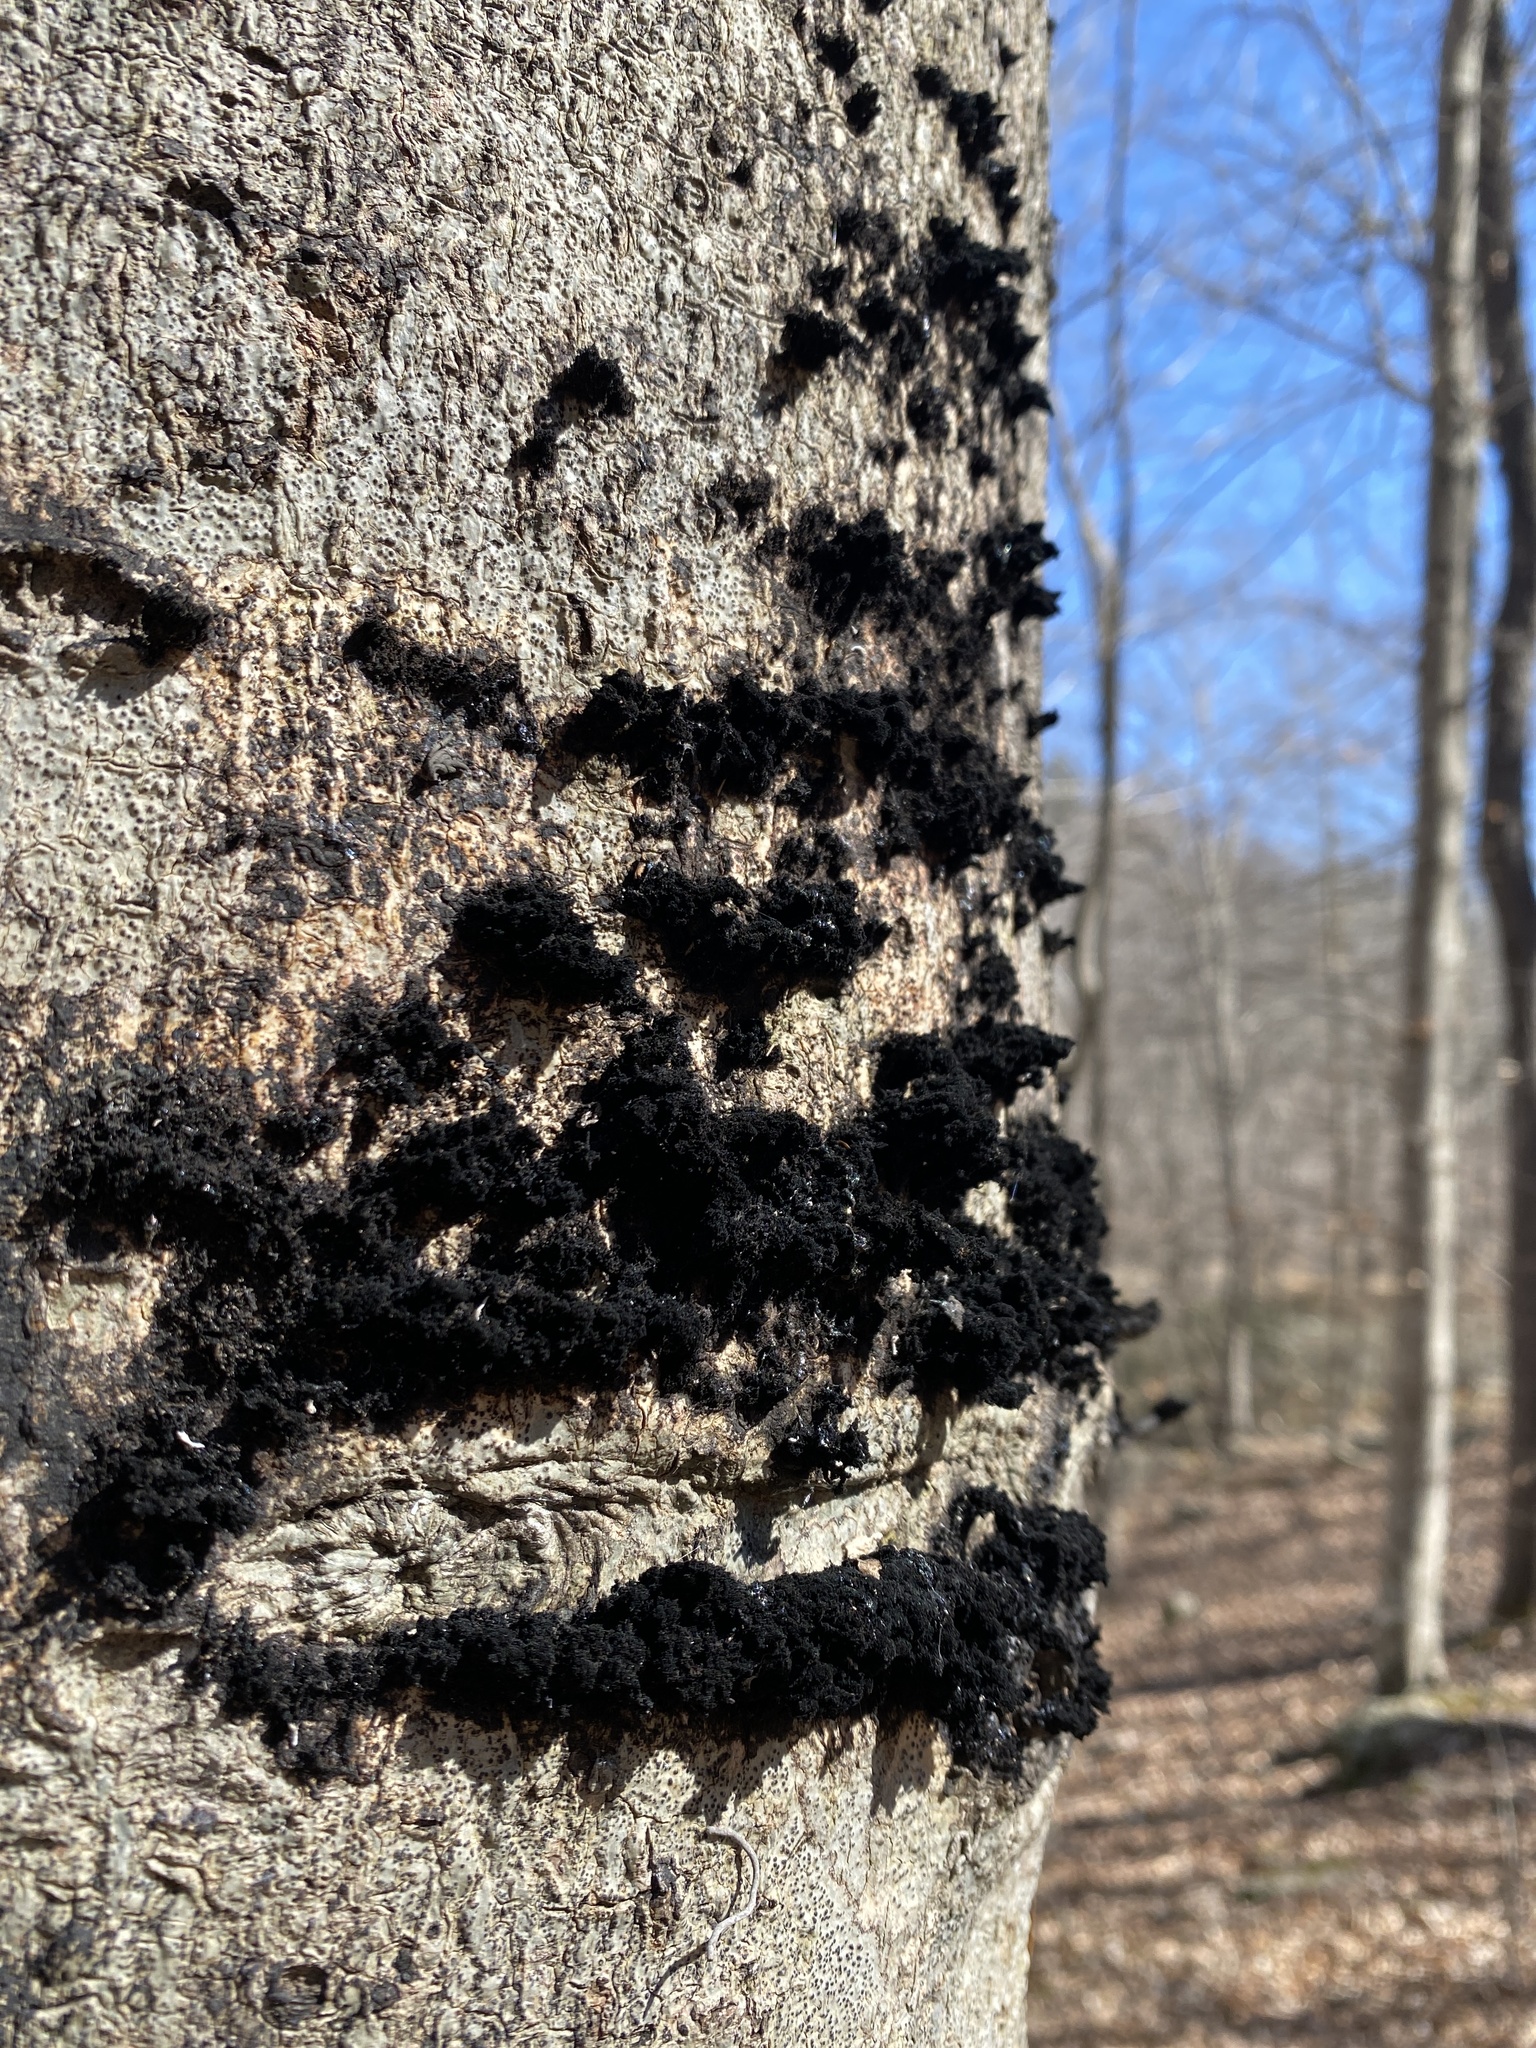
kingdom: Fungi
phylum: Ascomycota
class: Dothideomycetes
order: Capnodiales
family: Capnodiaceae
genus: Scorias
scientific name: Scorias spongiosa
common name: Black sooty mold
